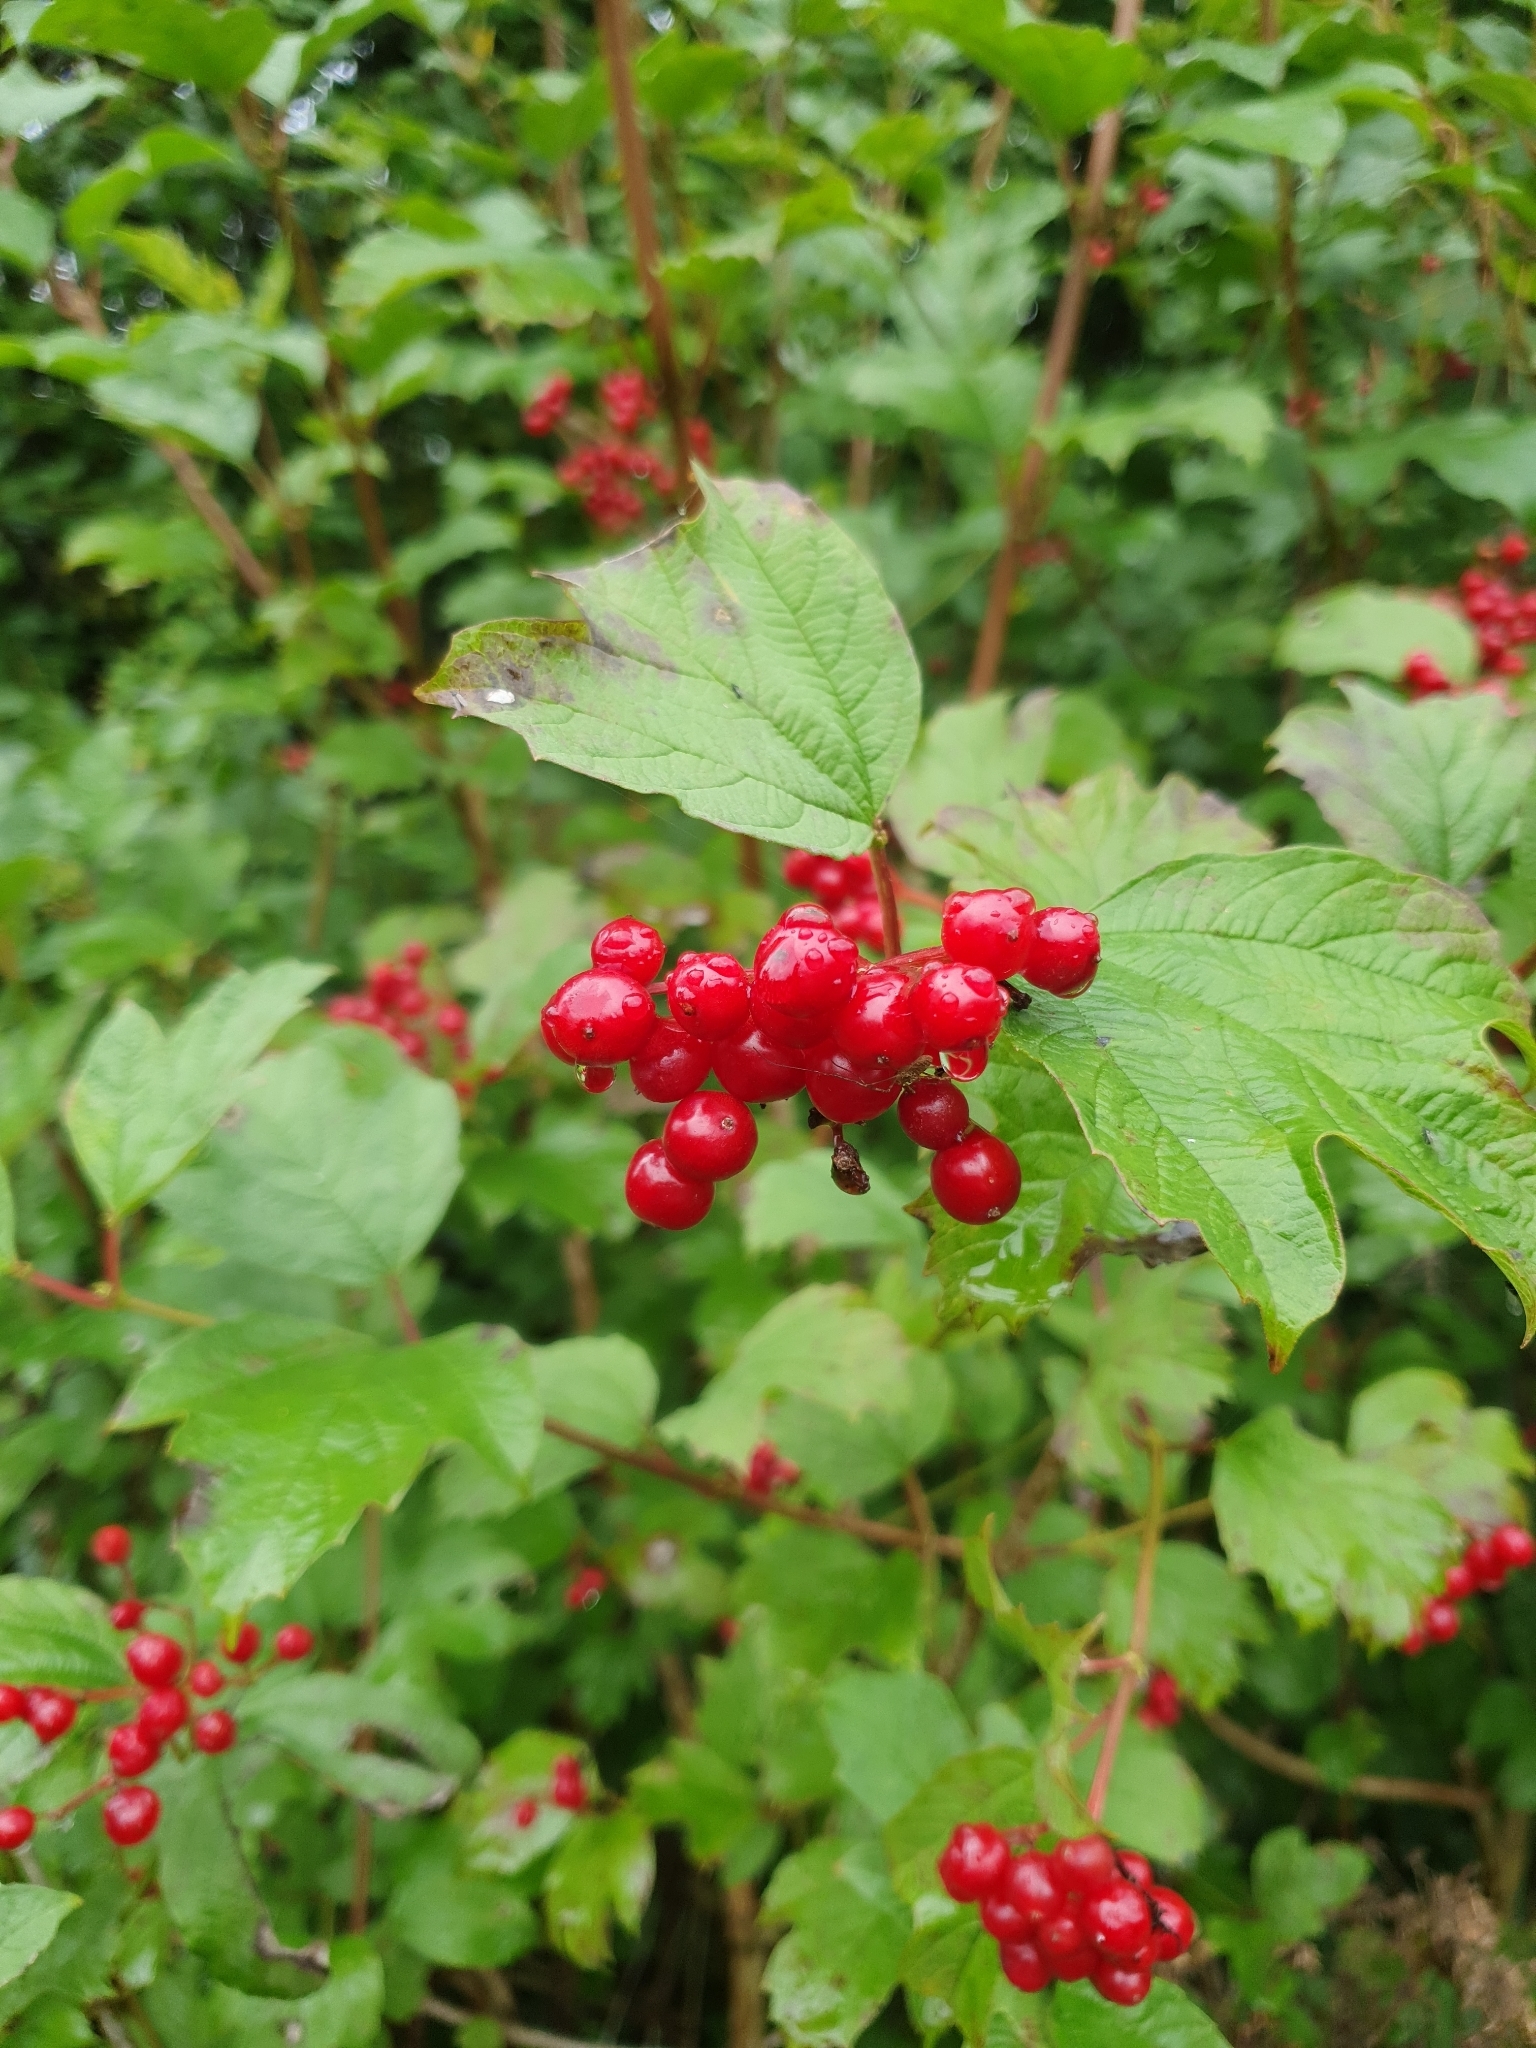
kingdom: Plantae
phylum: Tracheophyta
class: Magnoliopsida
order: Dipsacales
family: Viburnaceae
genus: Viburnum
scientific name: Viburnum opulus
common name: Guelder-rose
